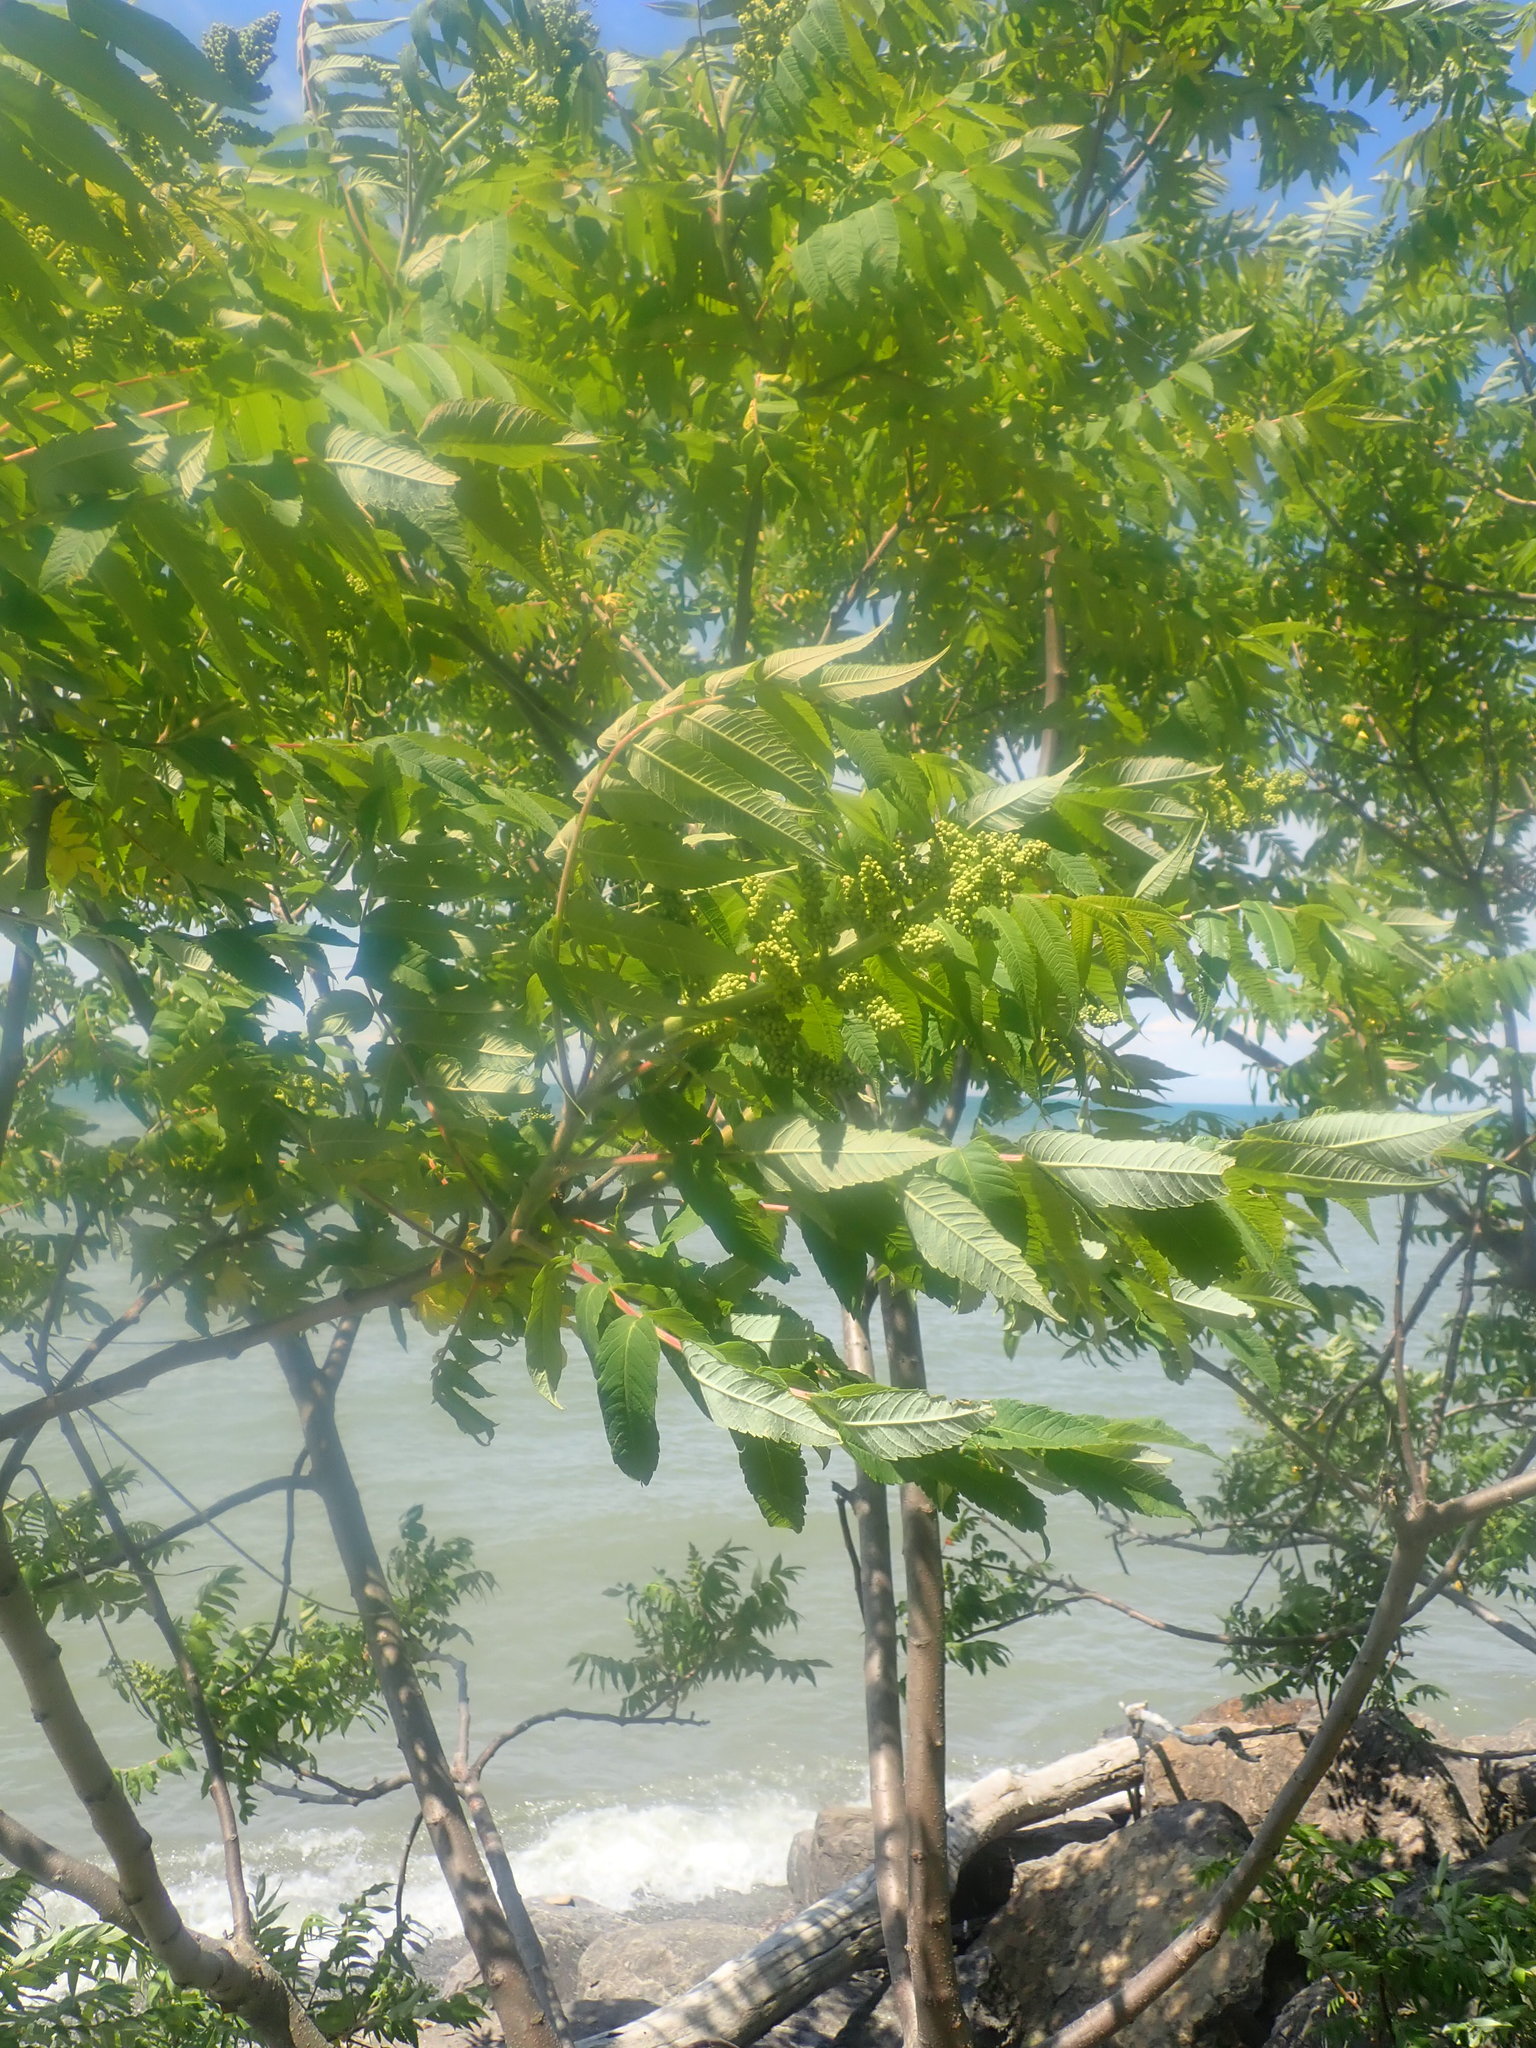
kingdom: Plantae
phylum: Tracheophyta
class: Magnoliopsida
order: Sapindales
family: Anacardiaceae
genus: Rhus
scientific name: Rhus typhina
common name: Staghorn sumac
